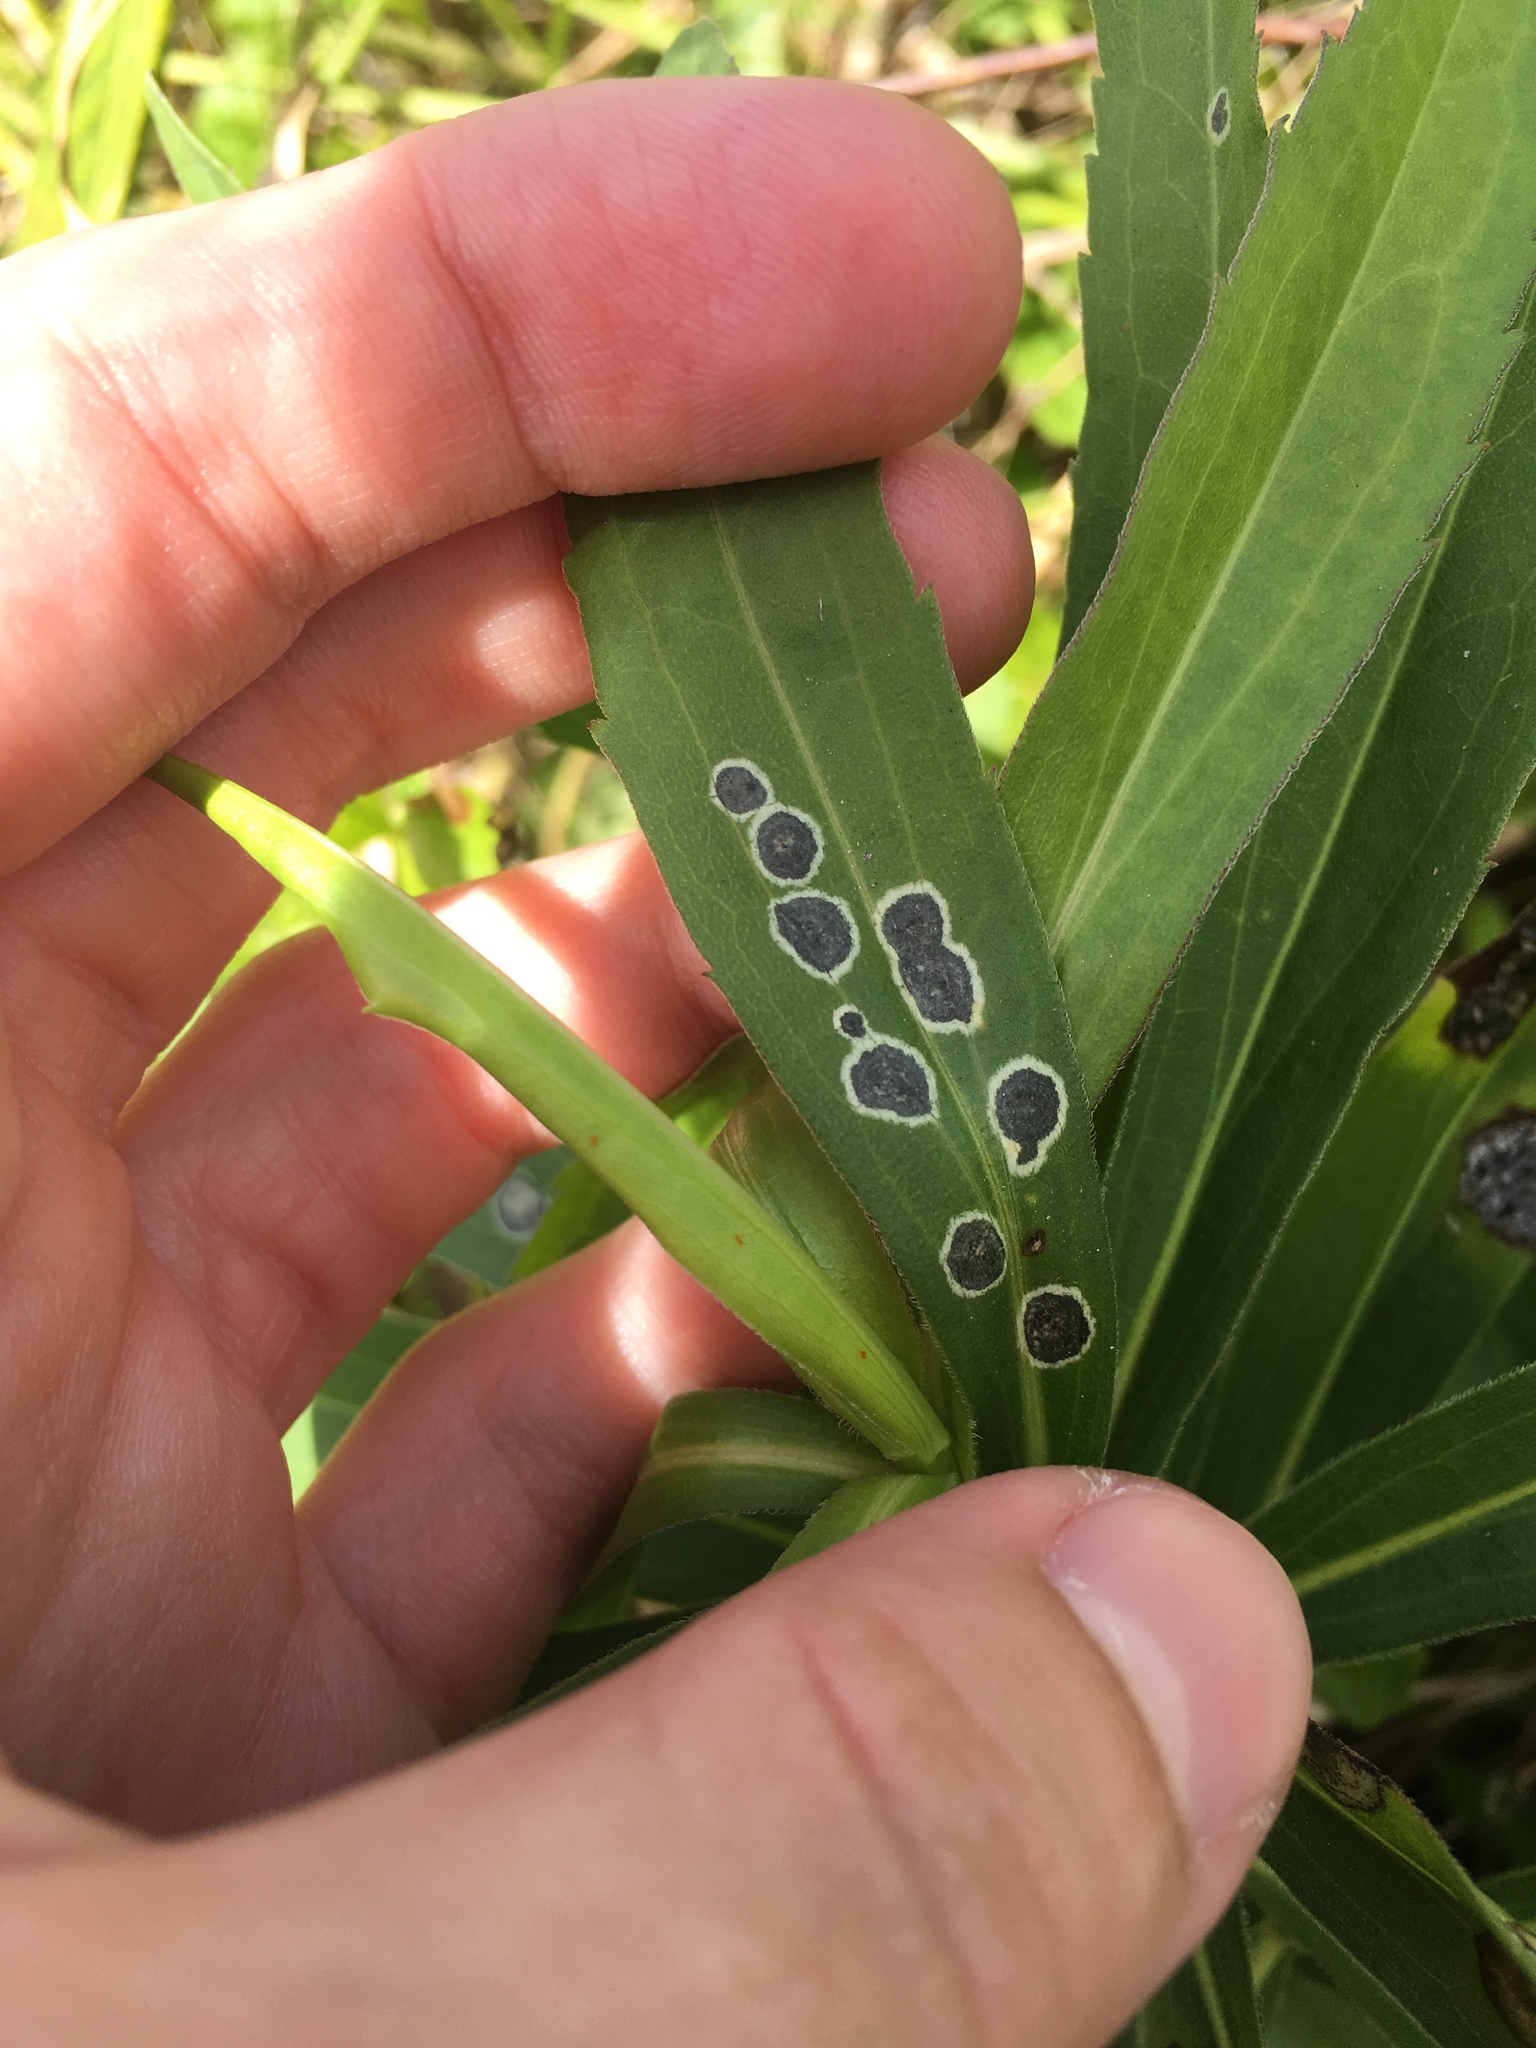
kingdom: Animalia
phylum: Arthropoda
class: Insecta
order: Diptera
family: Cecidomyiidae
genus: Asteromyia
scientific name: Asteromyia carbonifera
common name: Carbonifera goldenrod gall midge
